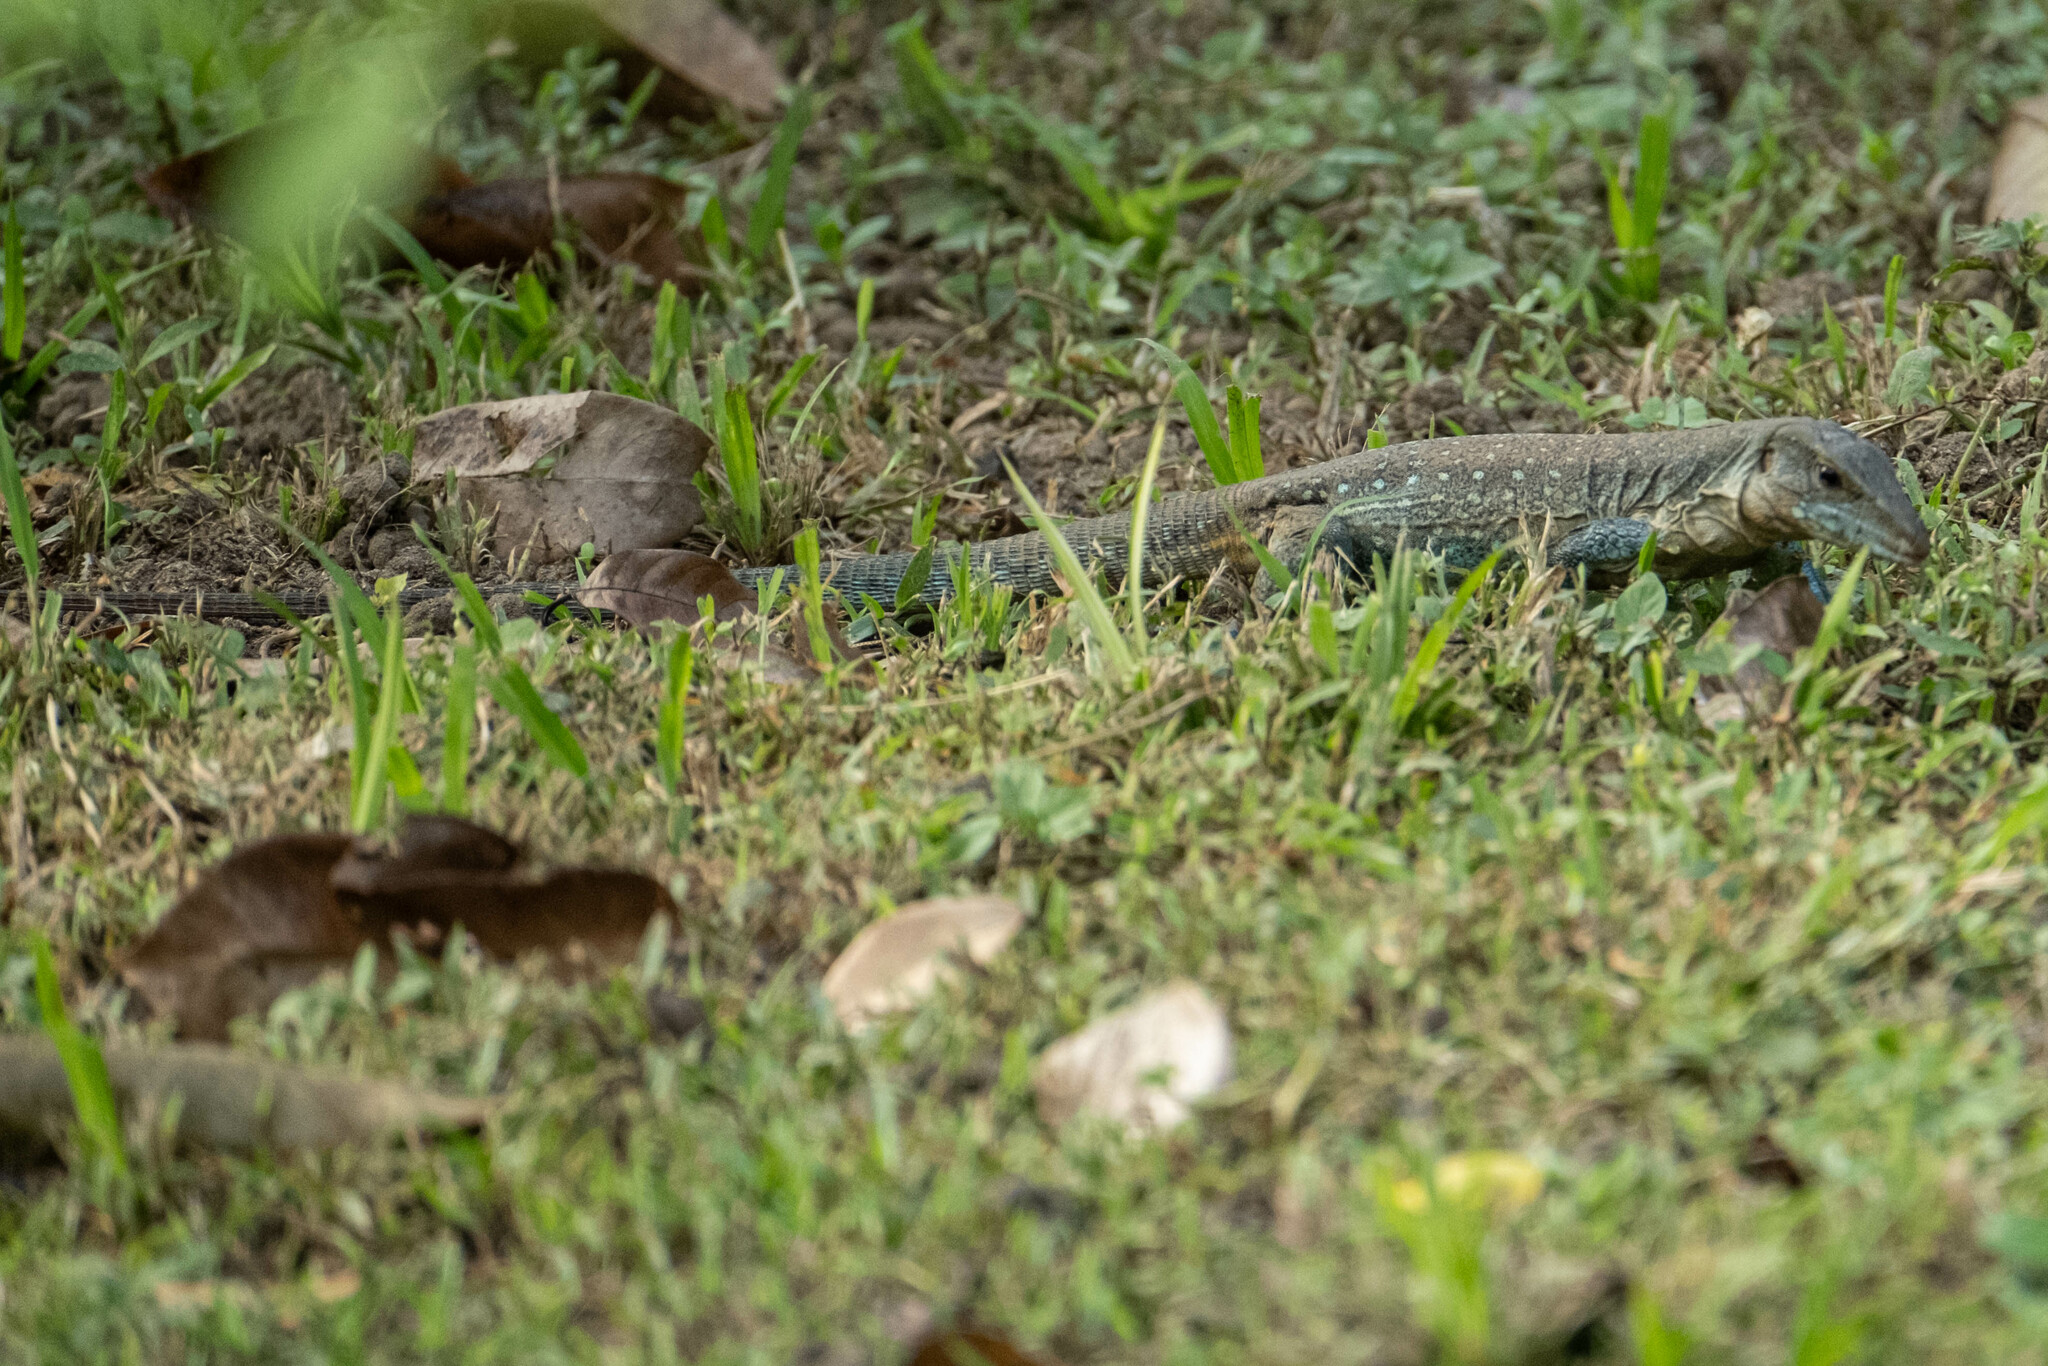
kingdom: Animalia
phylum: Chordata
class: Squamata
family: Teiidae
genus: Ameiva
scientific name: Ameiva praesignis
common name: Giant ameiva
